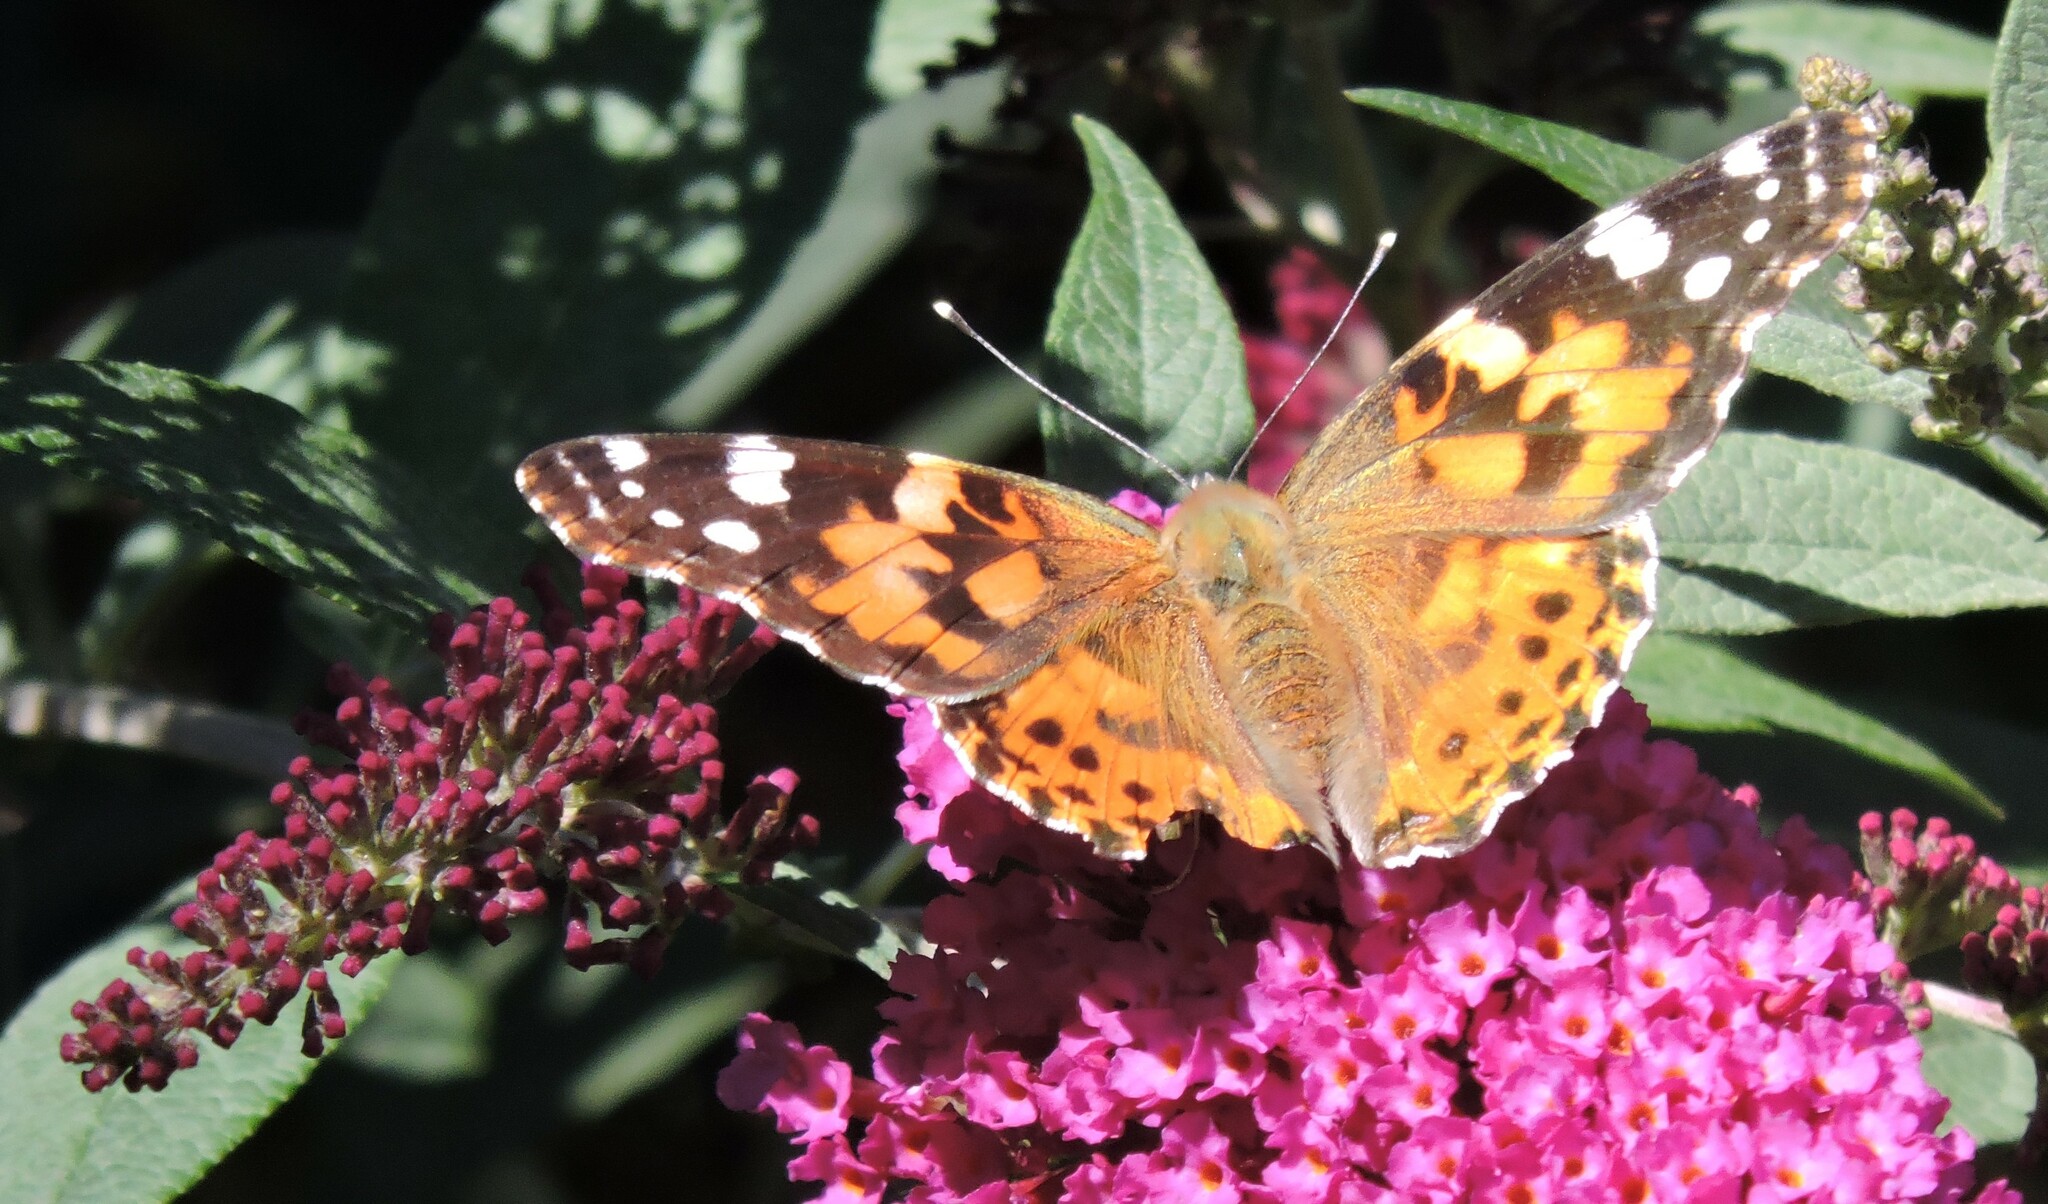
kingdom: Animalia
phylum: Arthropoda
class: Insecta
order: Lepidoptera
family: Nymphalidae
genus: Vanessa
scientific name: Vanessa cardui
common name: Painted lady
